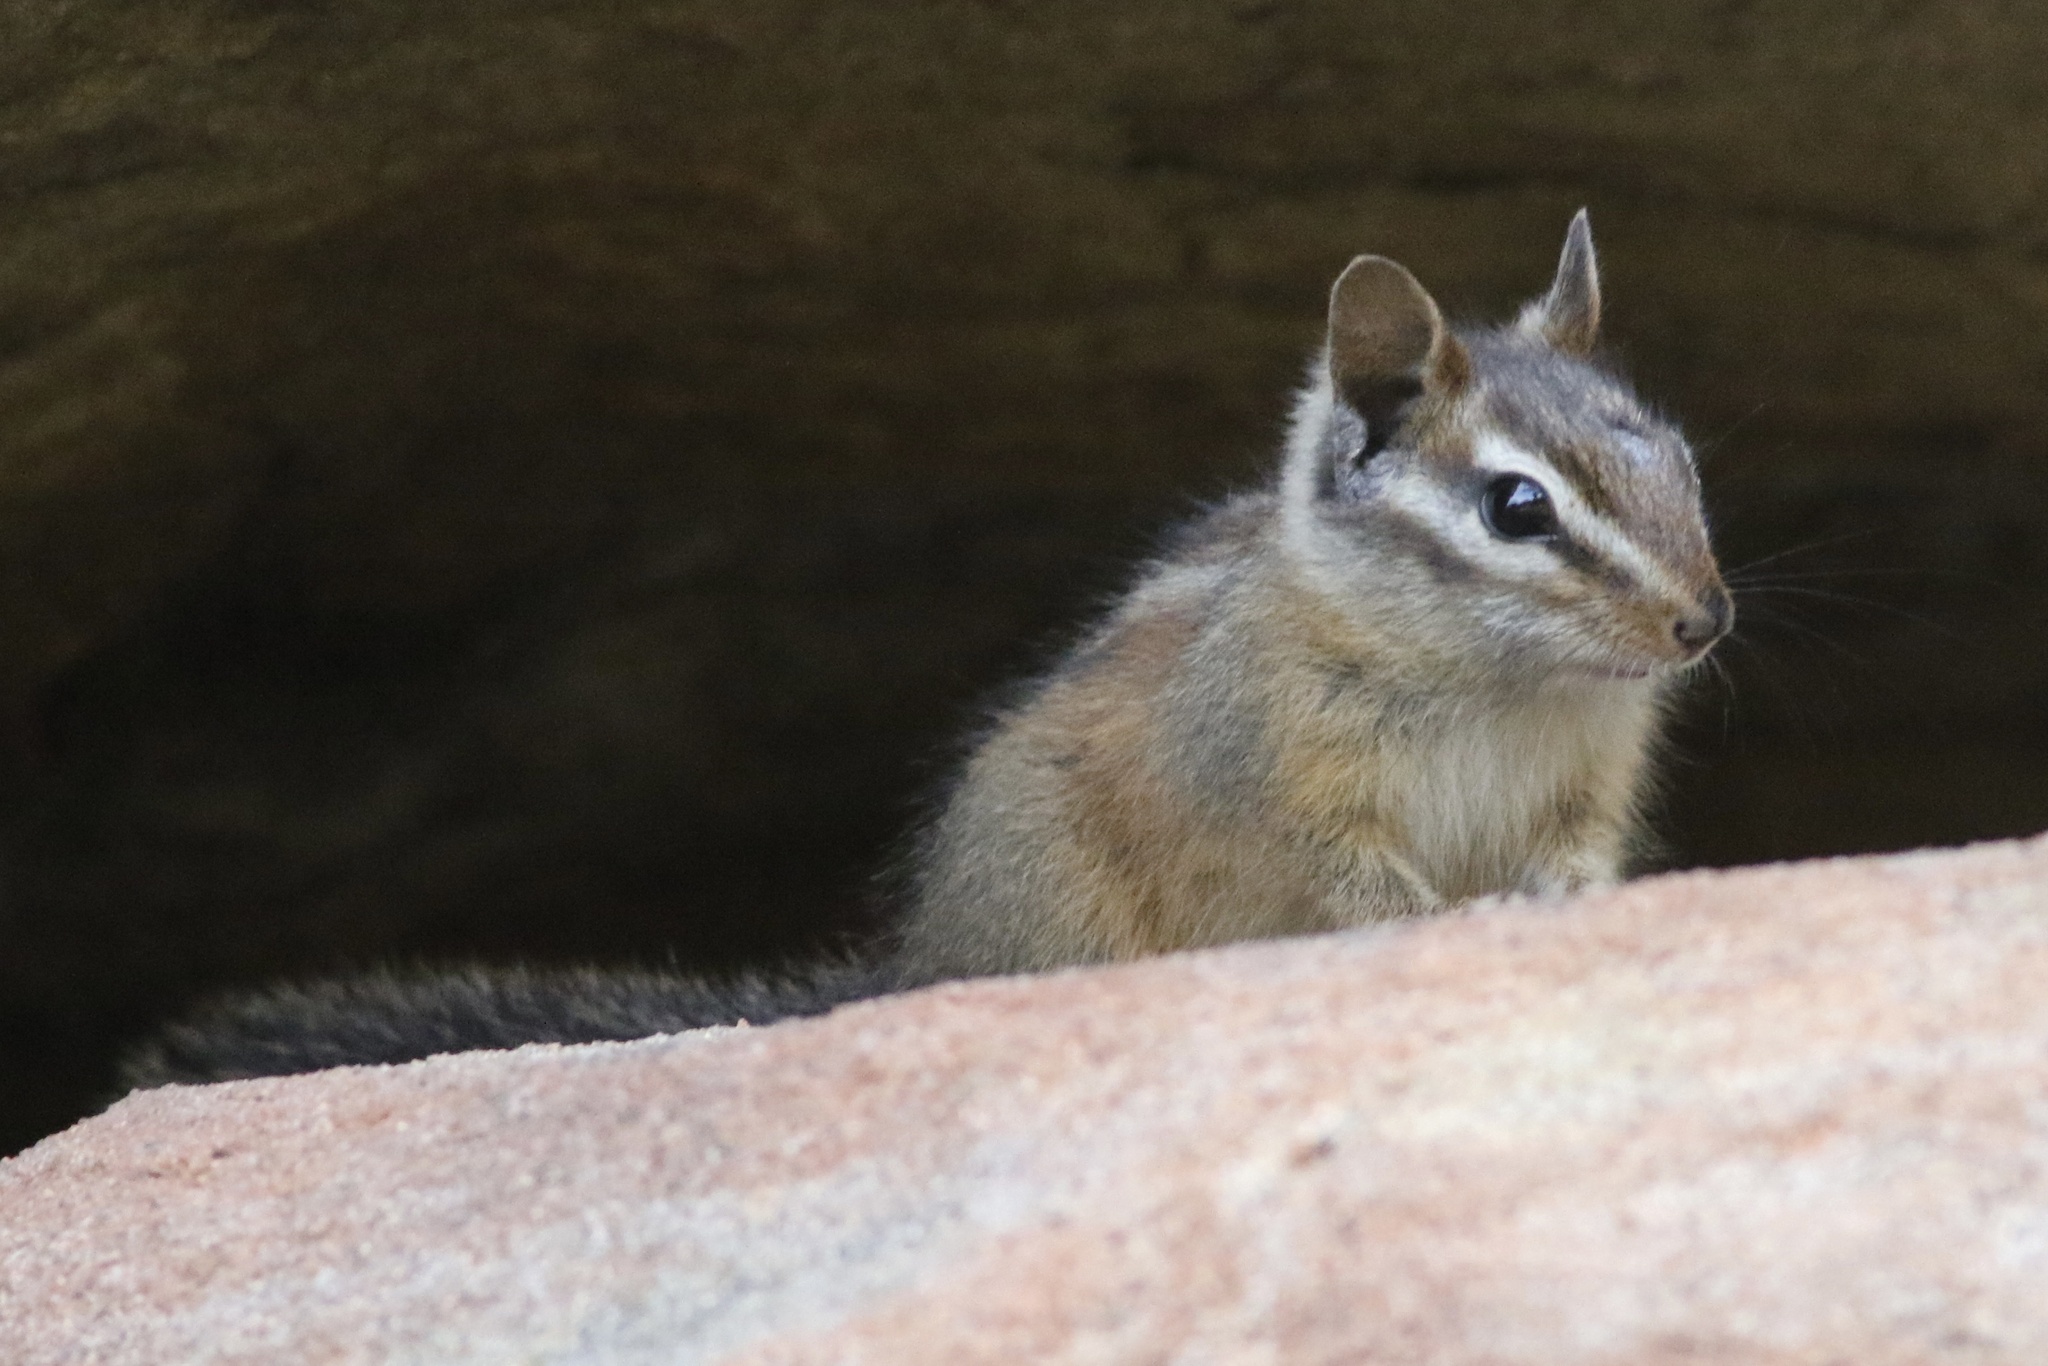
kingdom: Animalia
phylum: Chordata
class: Mammalia
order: Rodentia
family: Sciuridae
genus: Tamias
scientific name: Tamias merriami
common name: Merriam's chipmunk
